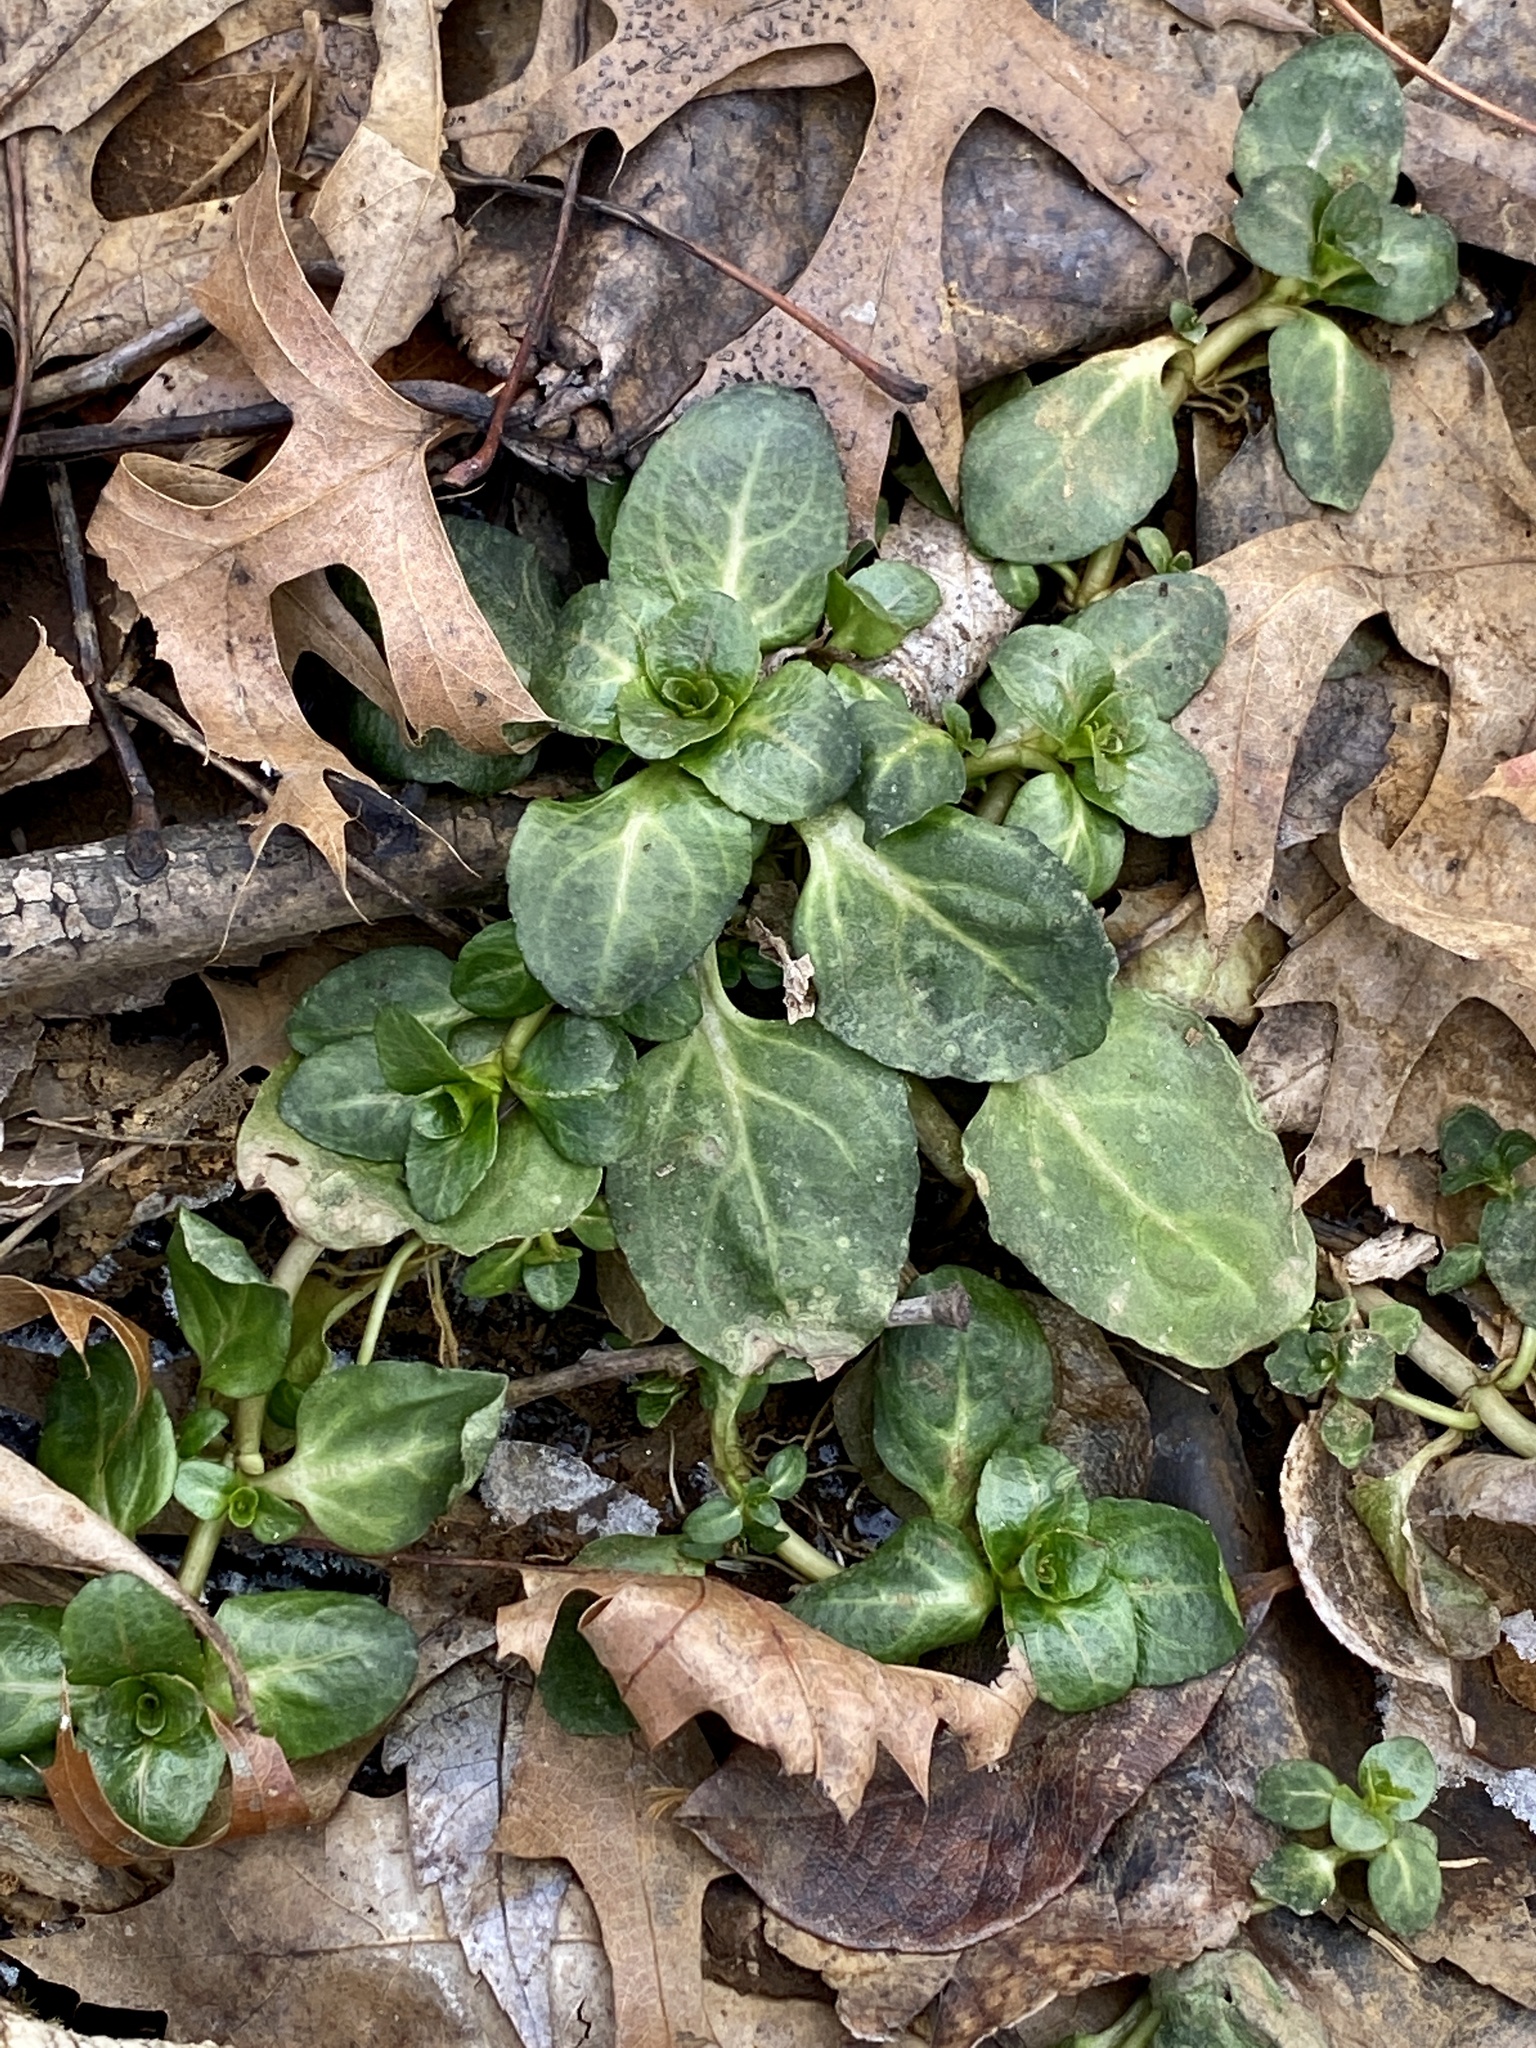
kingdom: Plantae
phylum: Tracheophyta
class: Magnoliopsida
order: Lamiales
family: Plantaginaceae
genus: Veronica
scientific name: Veronica americana
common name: American brooklime
